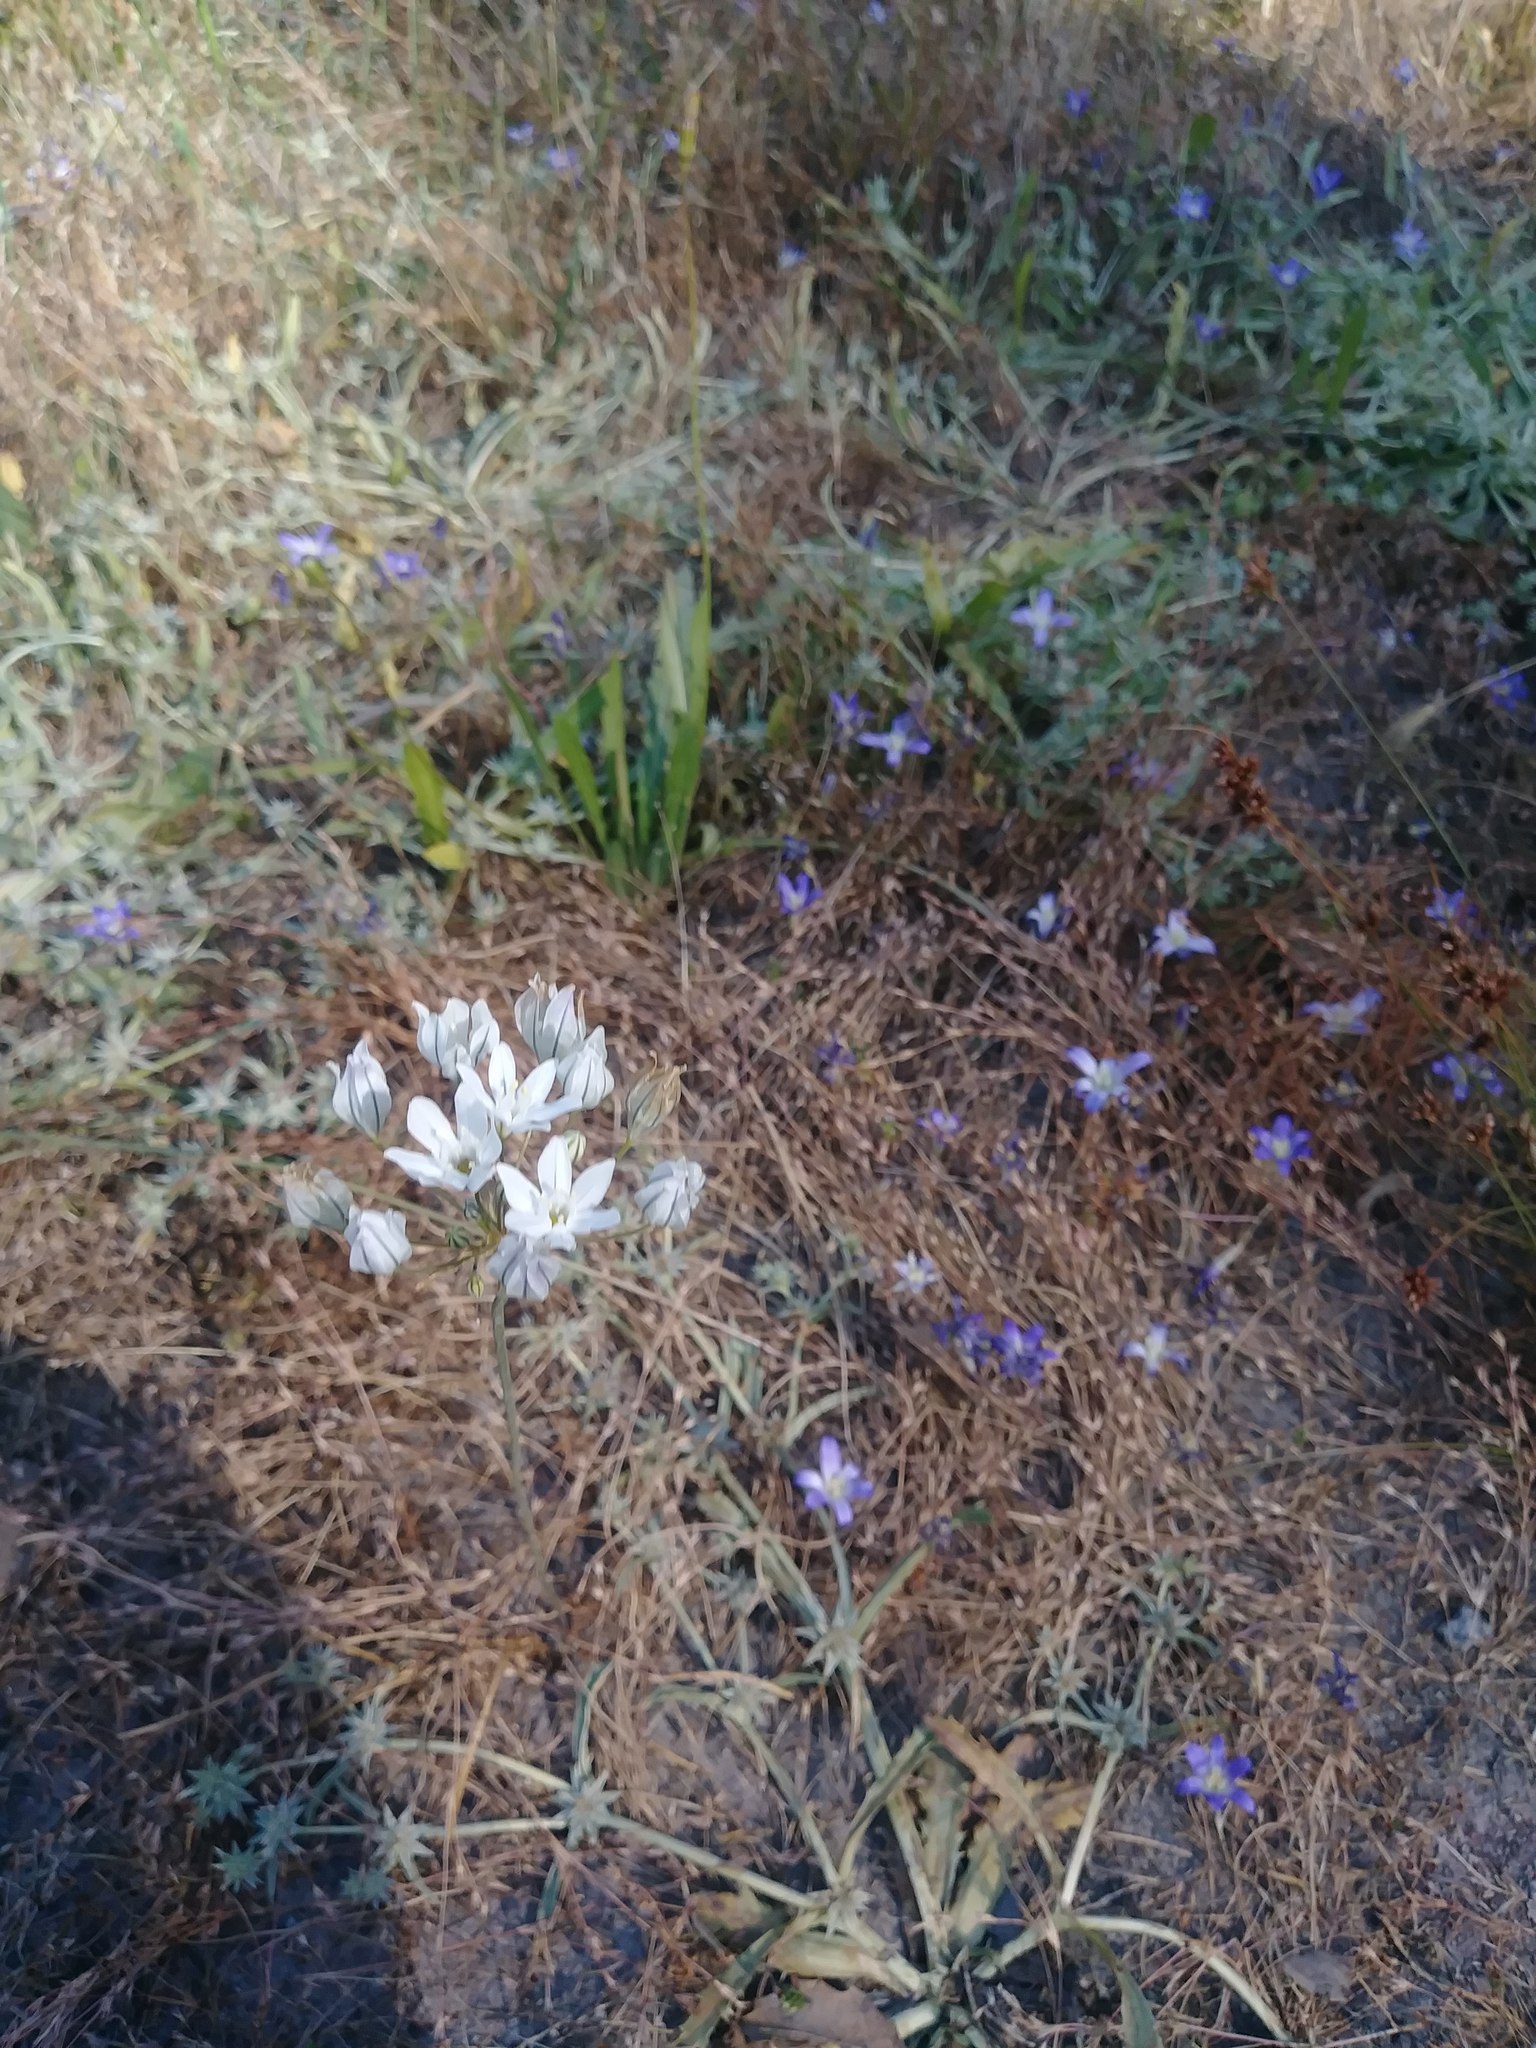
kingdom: Plantae
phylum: Tracheophyta
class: Liliopsida
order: Asparagales
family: Asparagaceae
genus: Triteleia
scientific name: Triteleia hyacinthina
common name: White brodiaea
